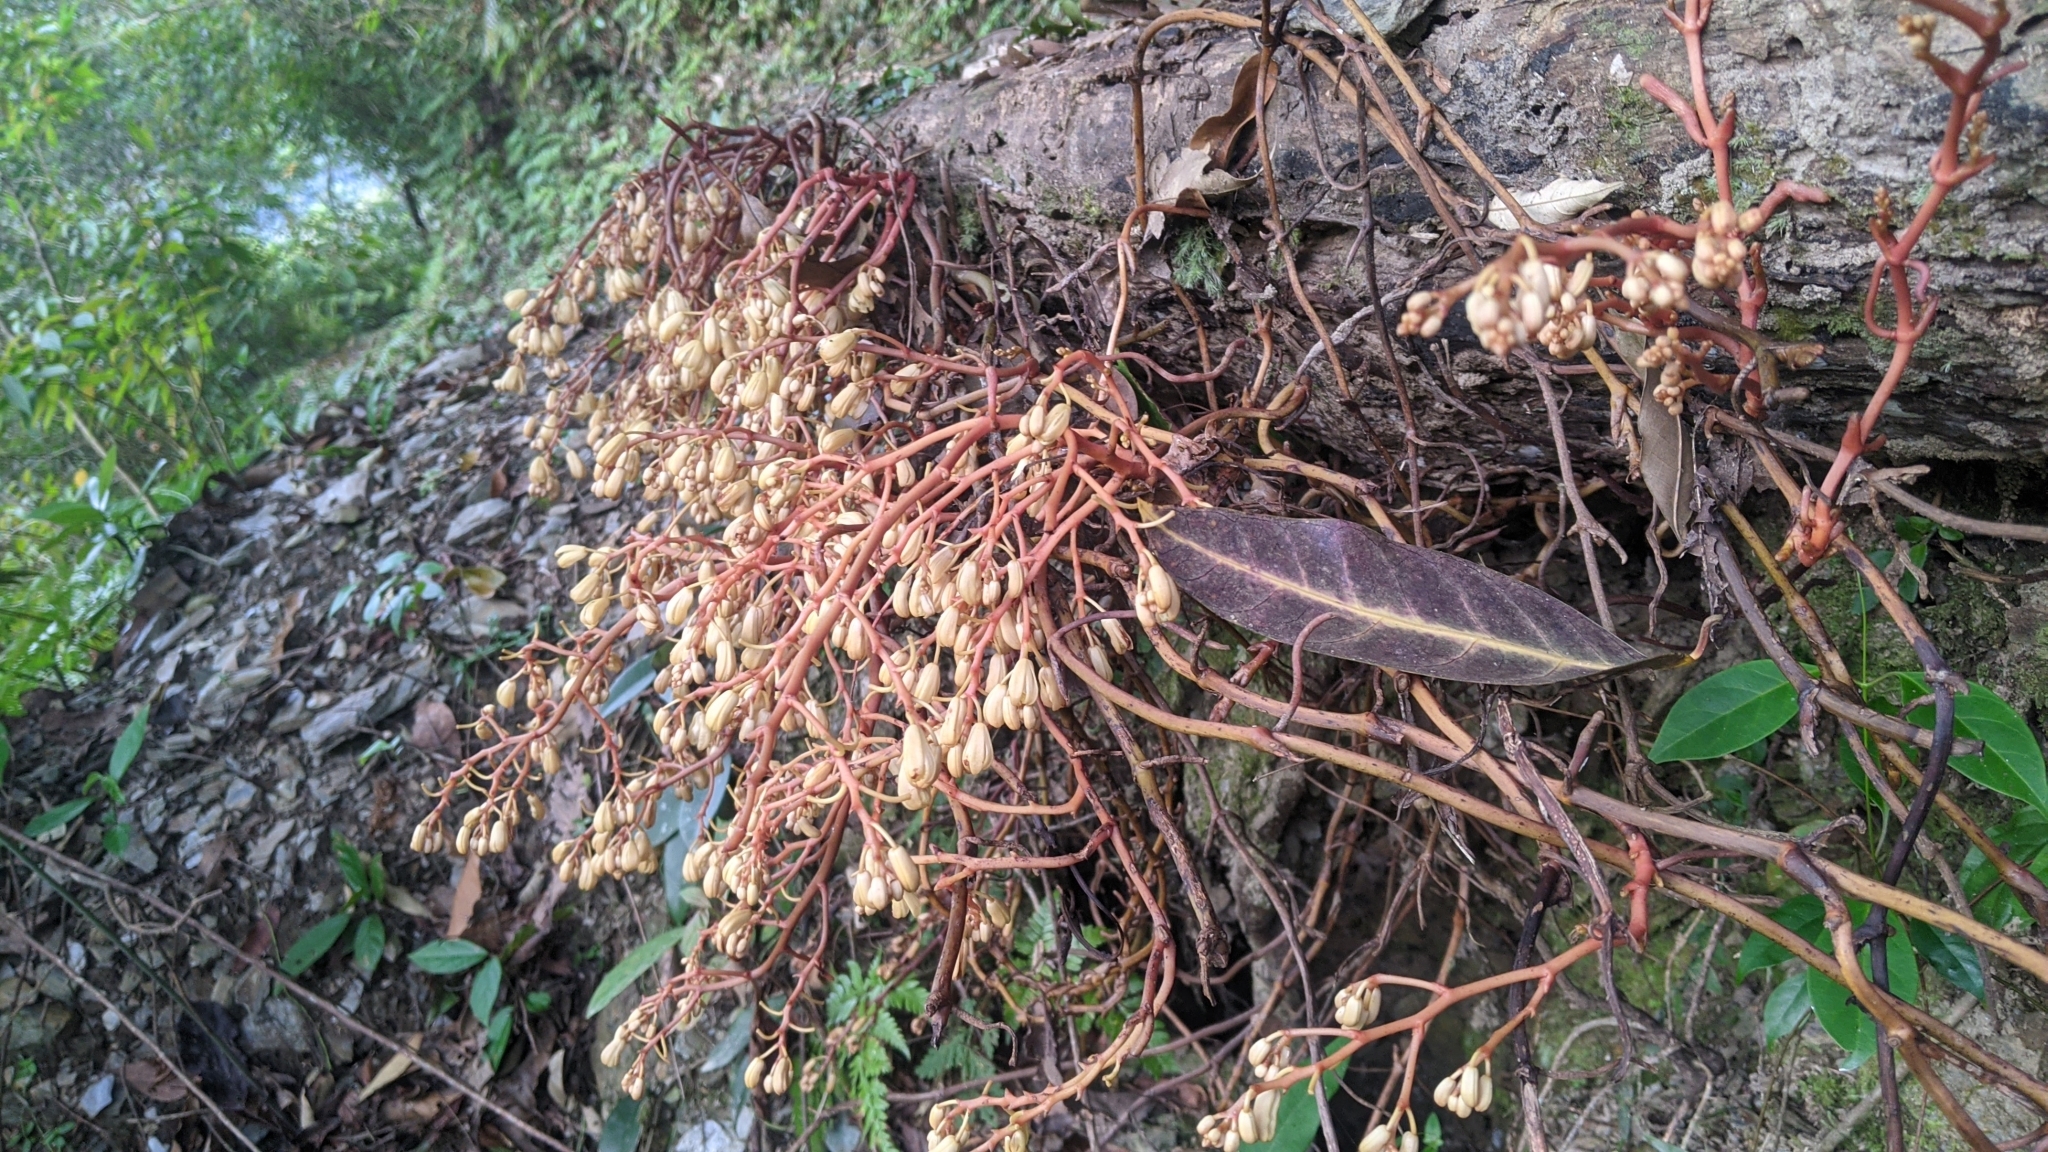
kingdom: Plantae
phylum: Tracheophyta
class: Liliopsida
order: Asparagales
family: Orchidaceae
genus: Erythrorchis
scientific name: Erythrorchis altissima
